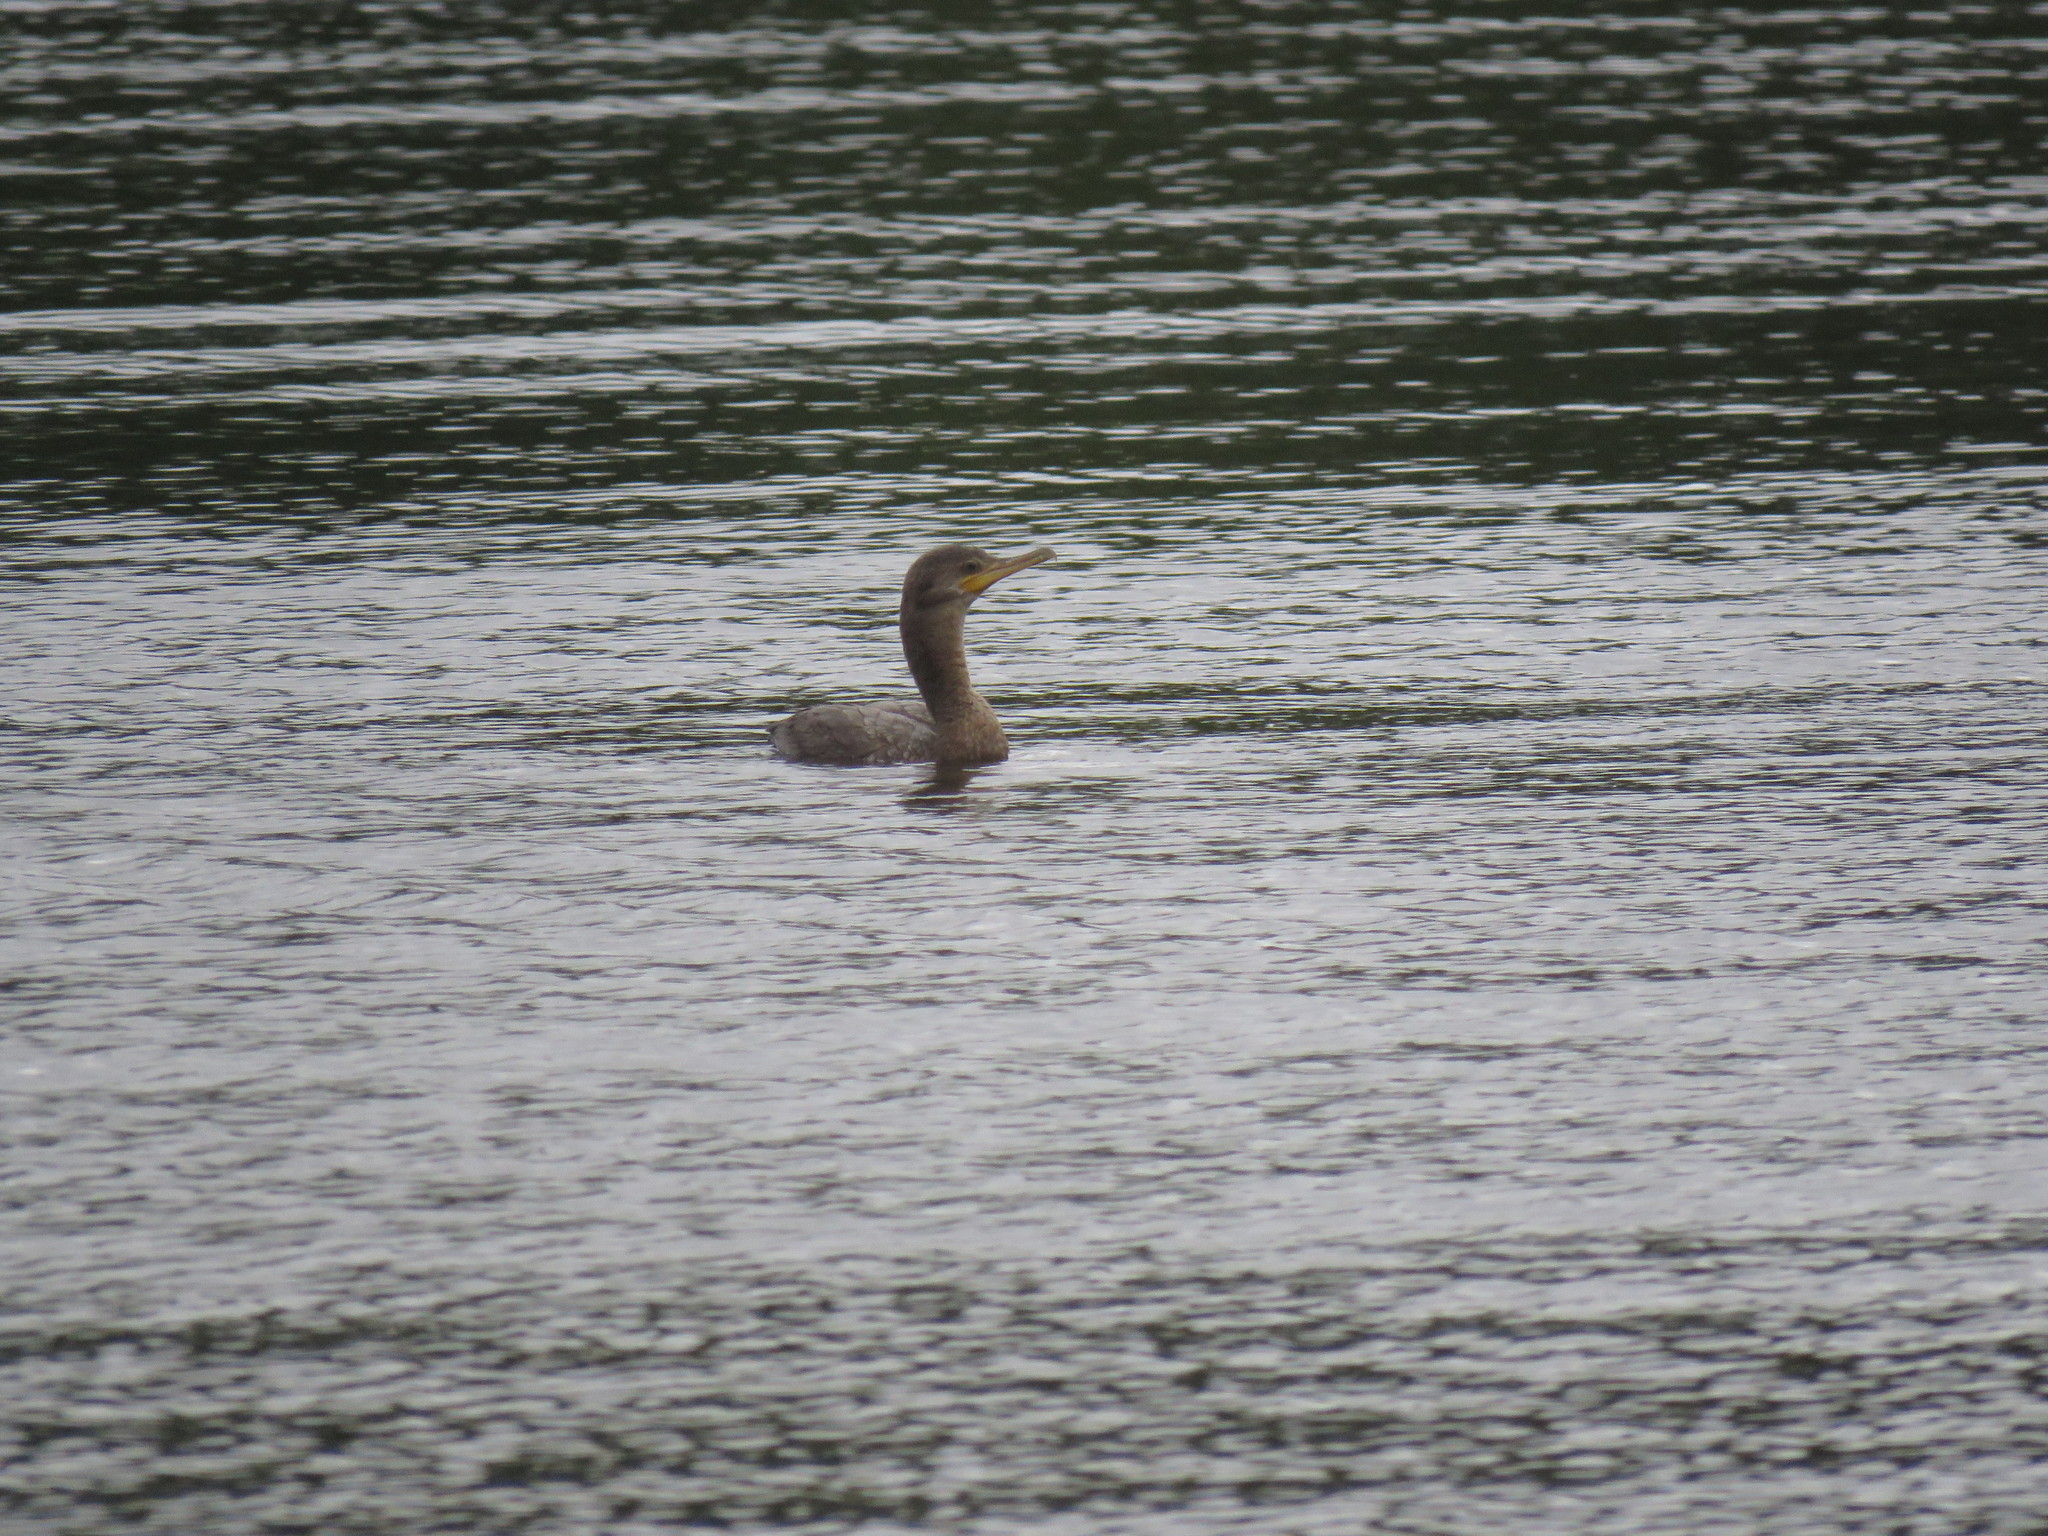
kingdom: Animalia
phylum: Chordata
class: Aves
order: Suliformes
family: Phalacrocoracidae
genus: Phalacrocorax
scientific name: Phalacrocorax brasilianus
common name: Neotropic cormorant
